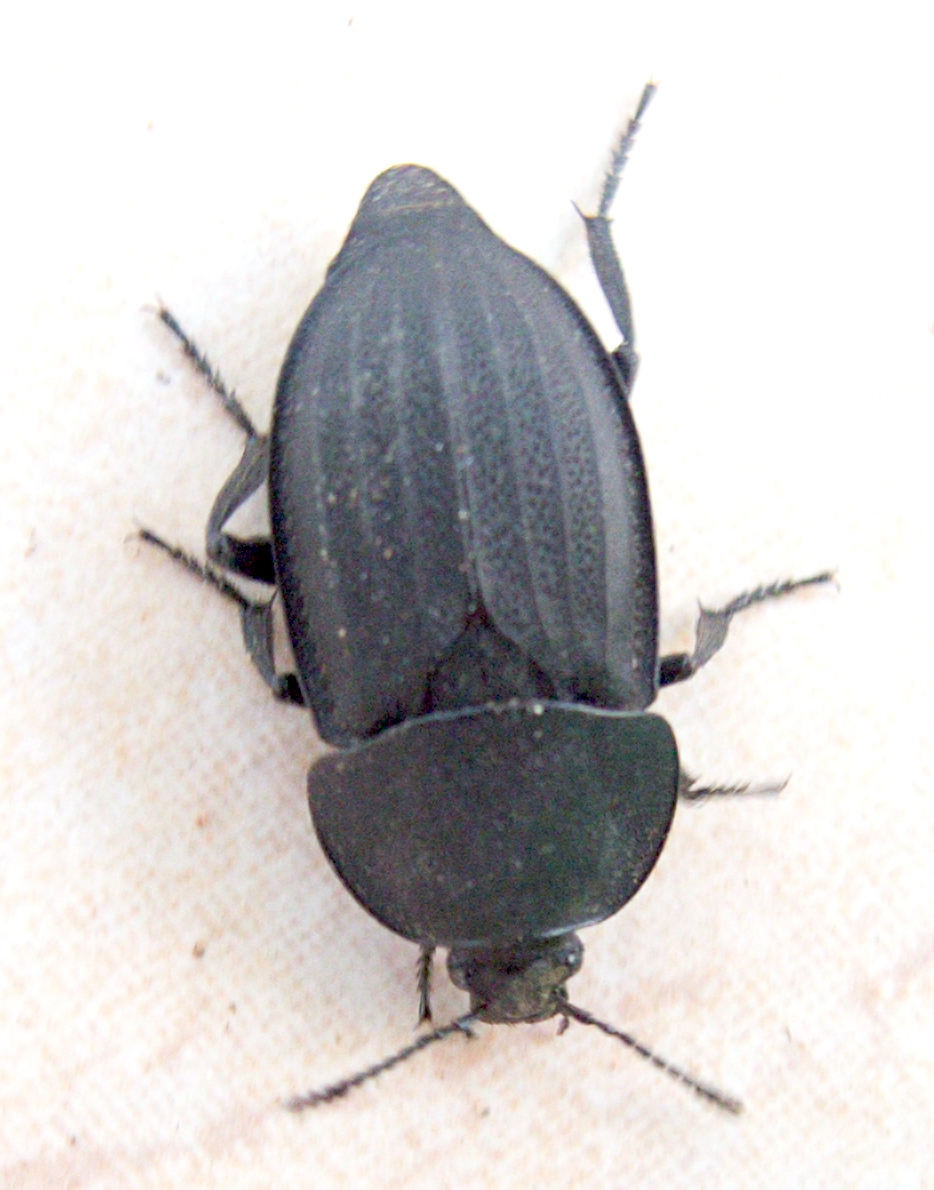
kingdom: Animalia
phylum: Arthropoda
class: Insecta
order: Coleoptera
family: Staphylinidae
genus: Silpha
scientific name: Silpha obscura
